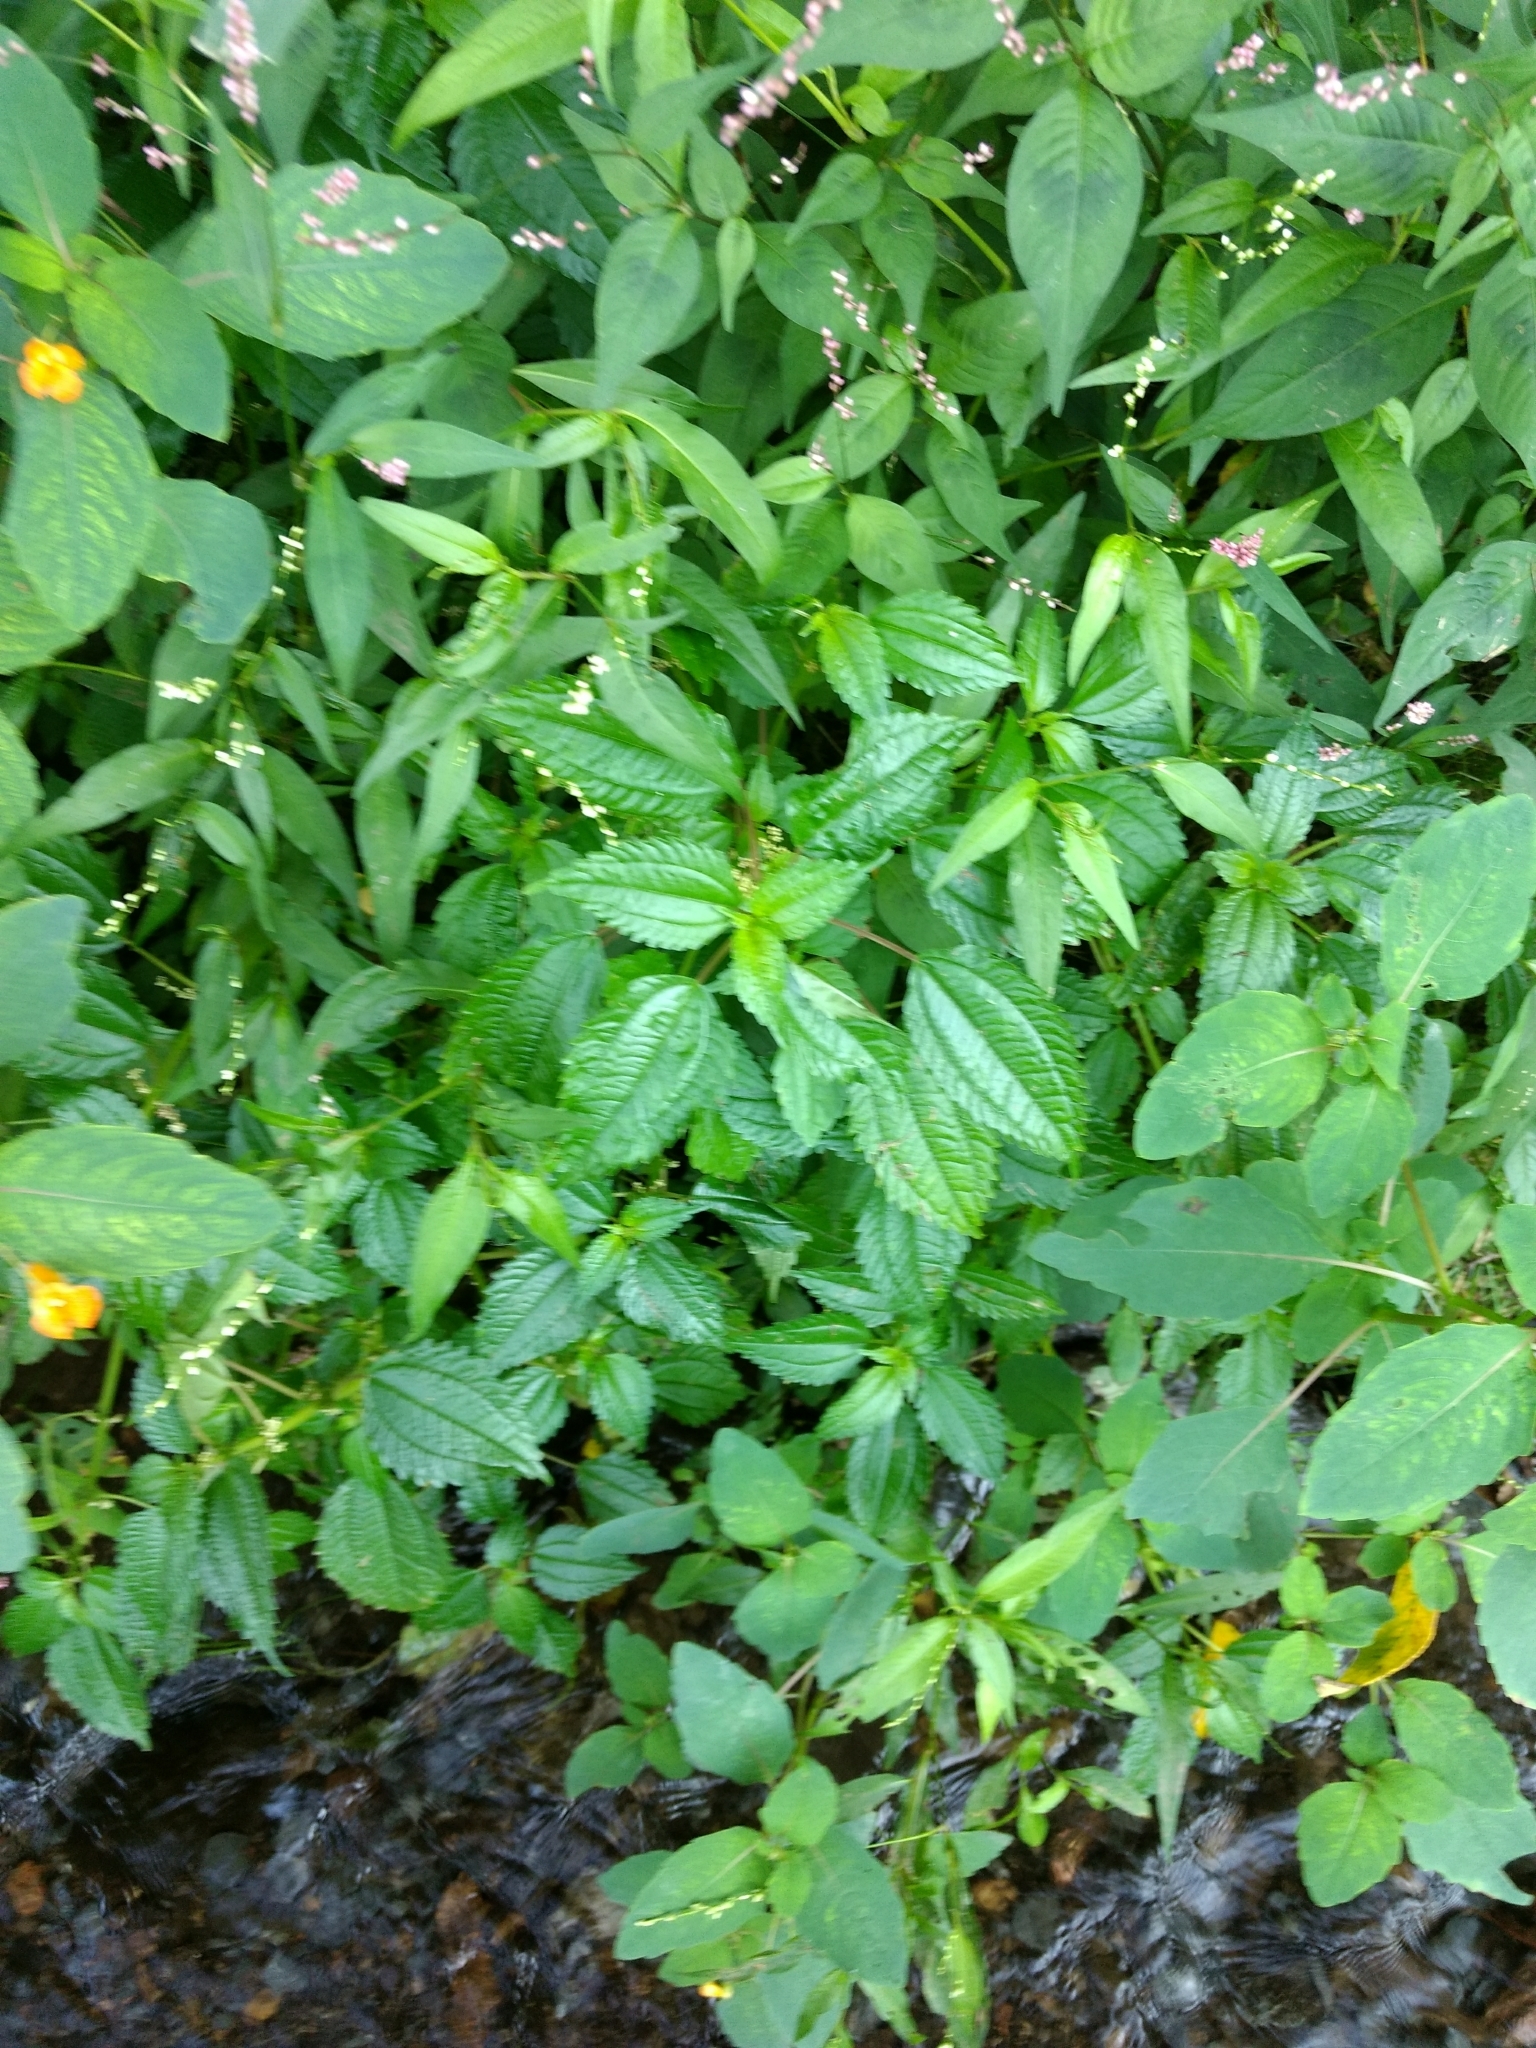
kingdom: Plantae
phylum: Tracheophyta
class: Magnoliopsida
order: Rosales
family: Urticaceae
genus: Pilea
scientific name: Pilea pumila
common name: Clearweed
